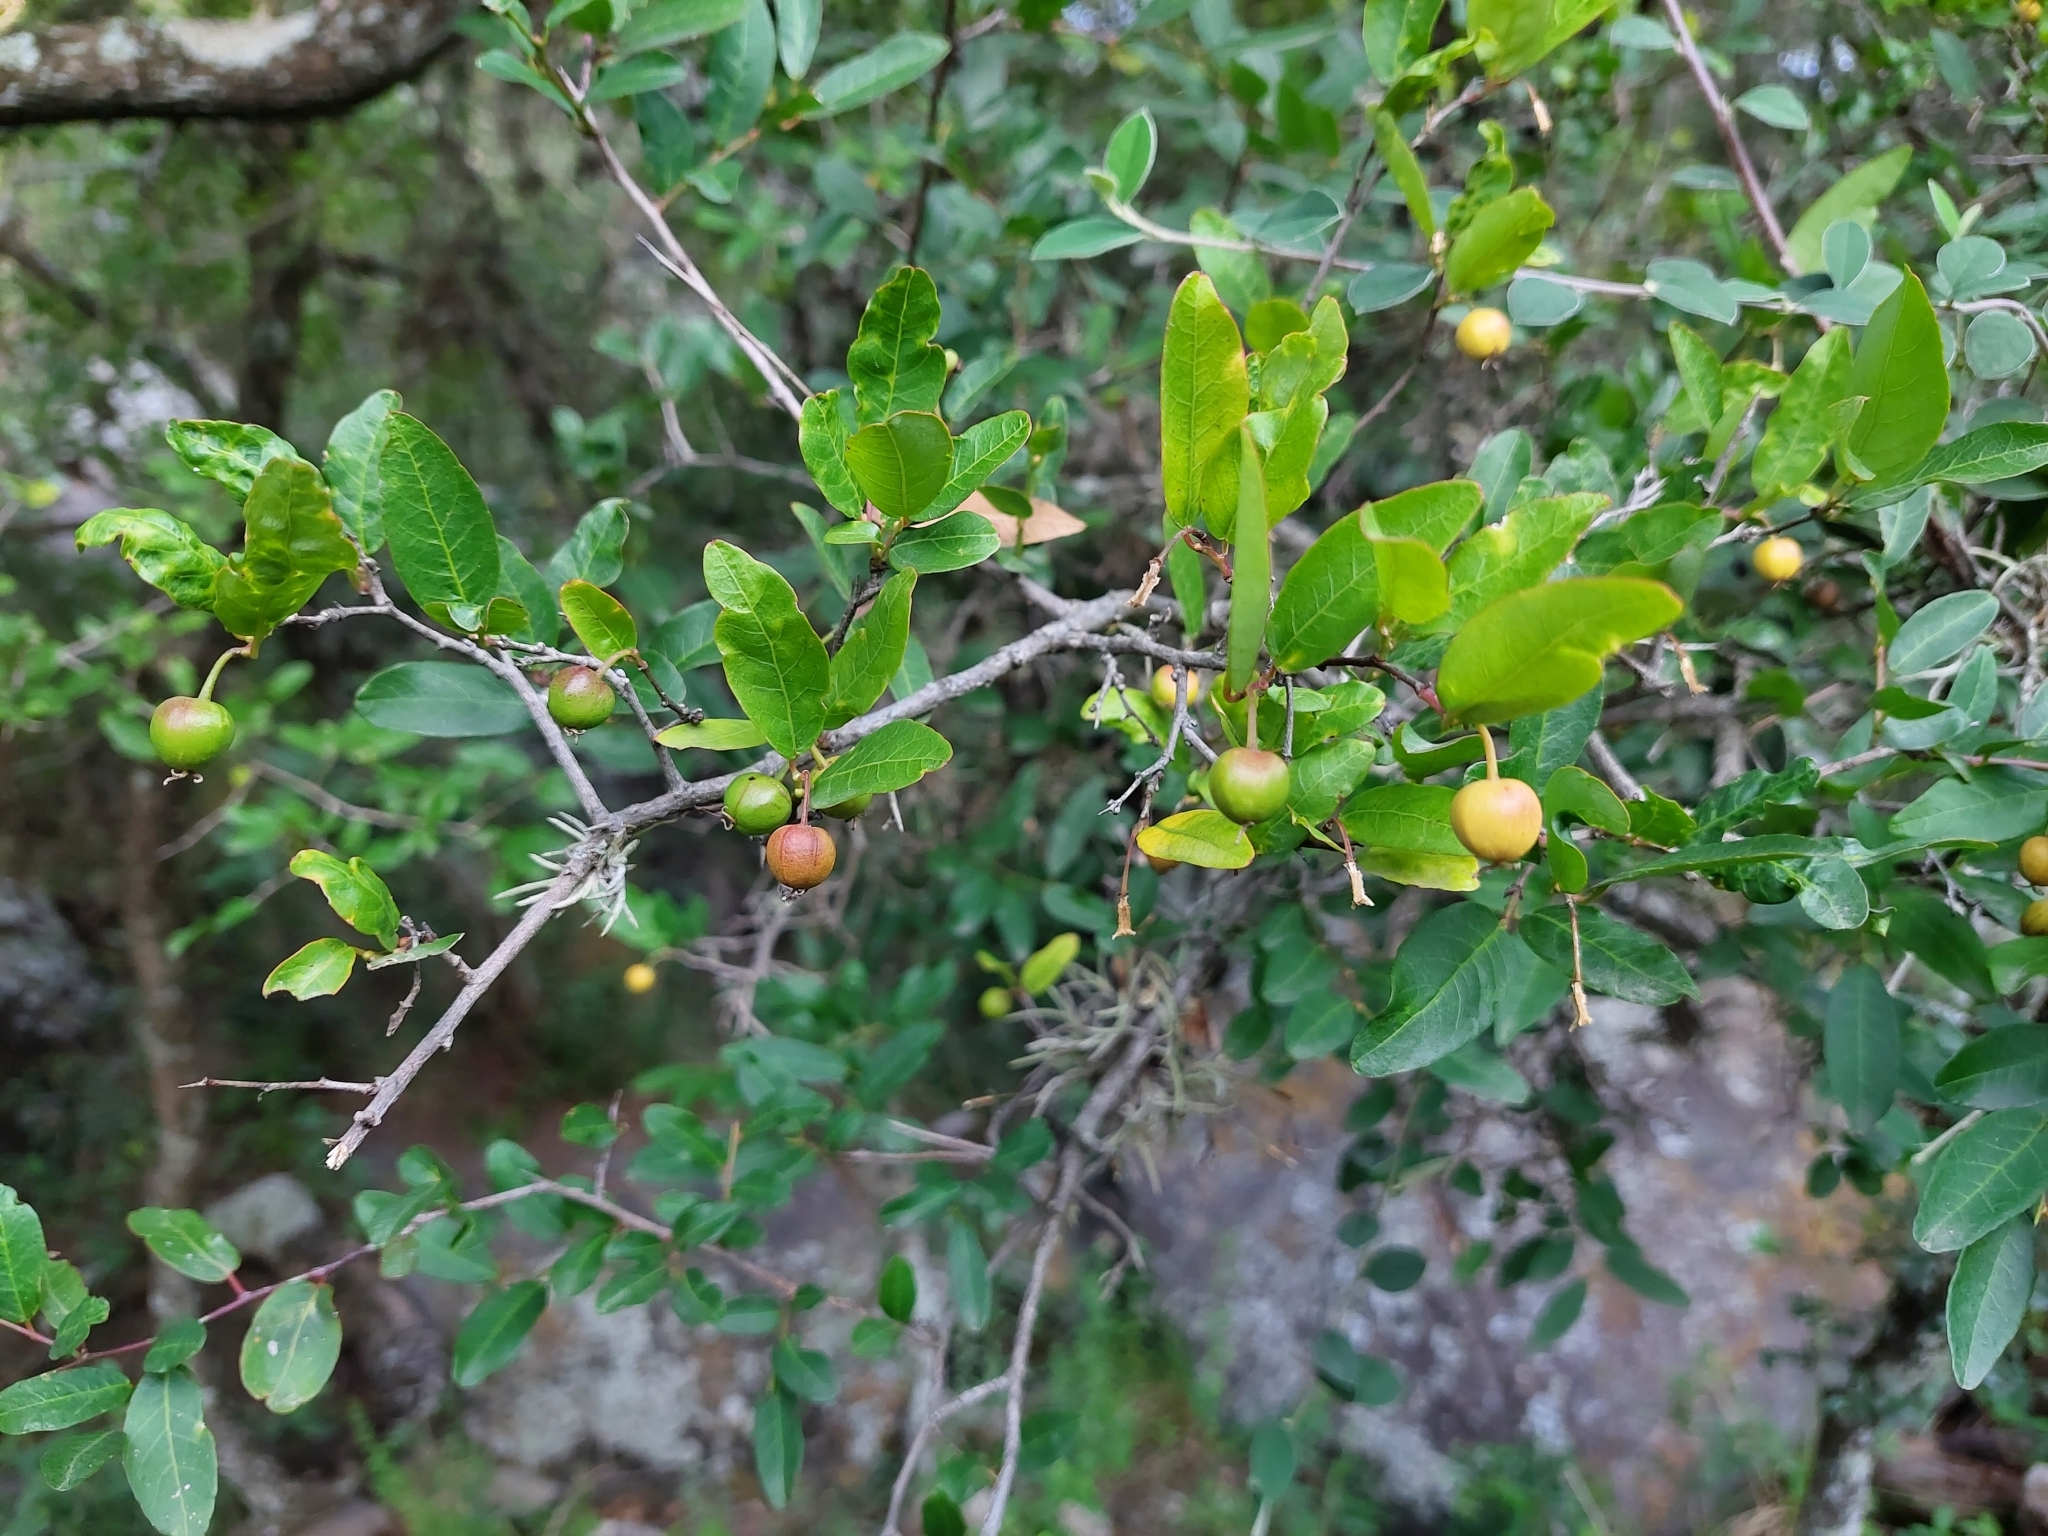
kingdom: Plantae
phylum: Tracheophyta
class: Magnoliopsida
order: Malpighiales
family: Euphorbiaceae
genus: Sebastiania
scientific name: Sebastiania klotzschiana
